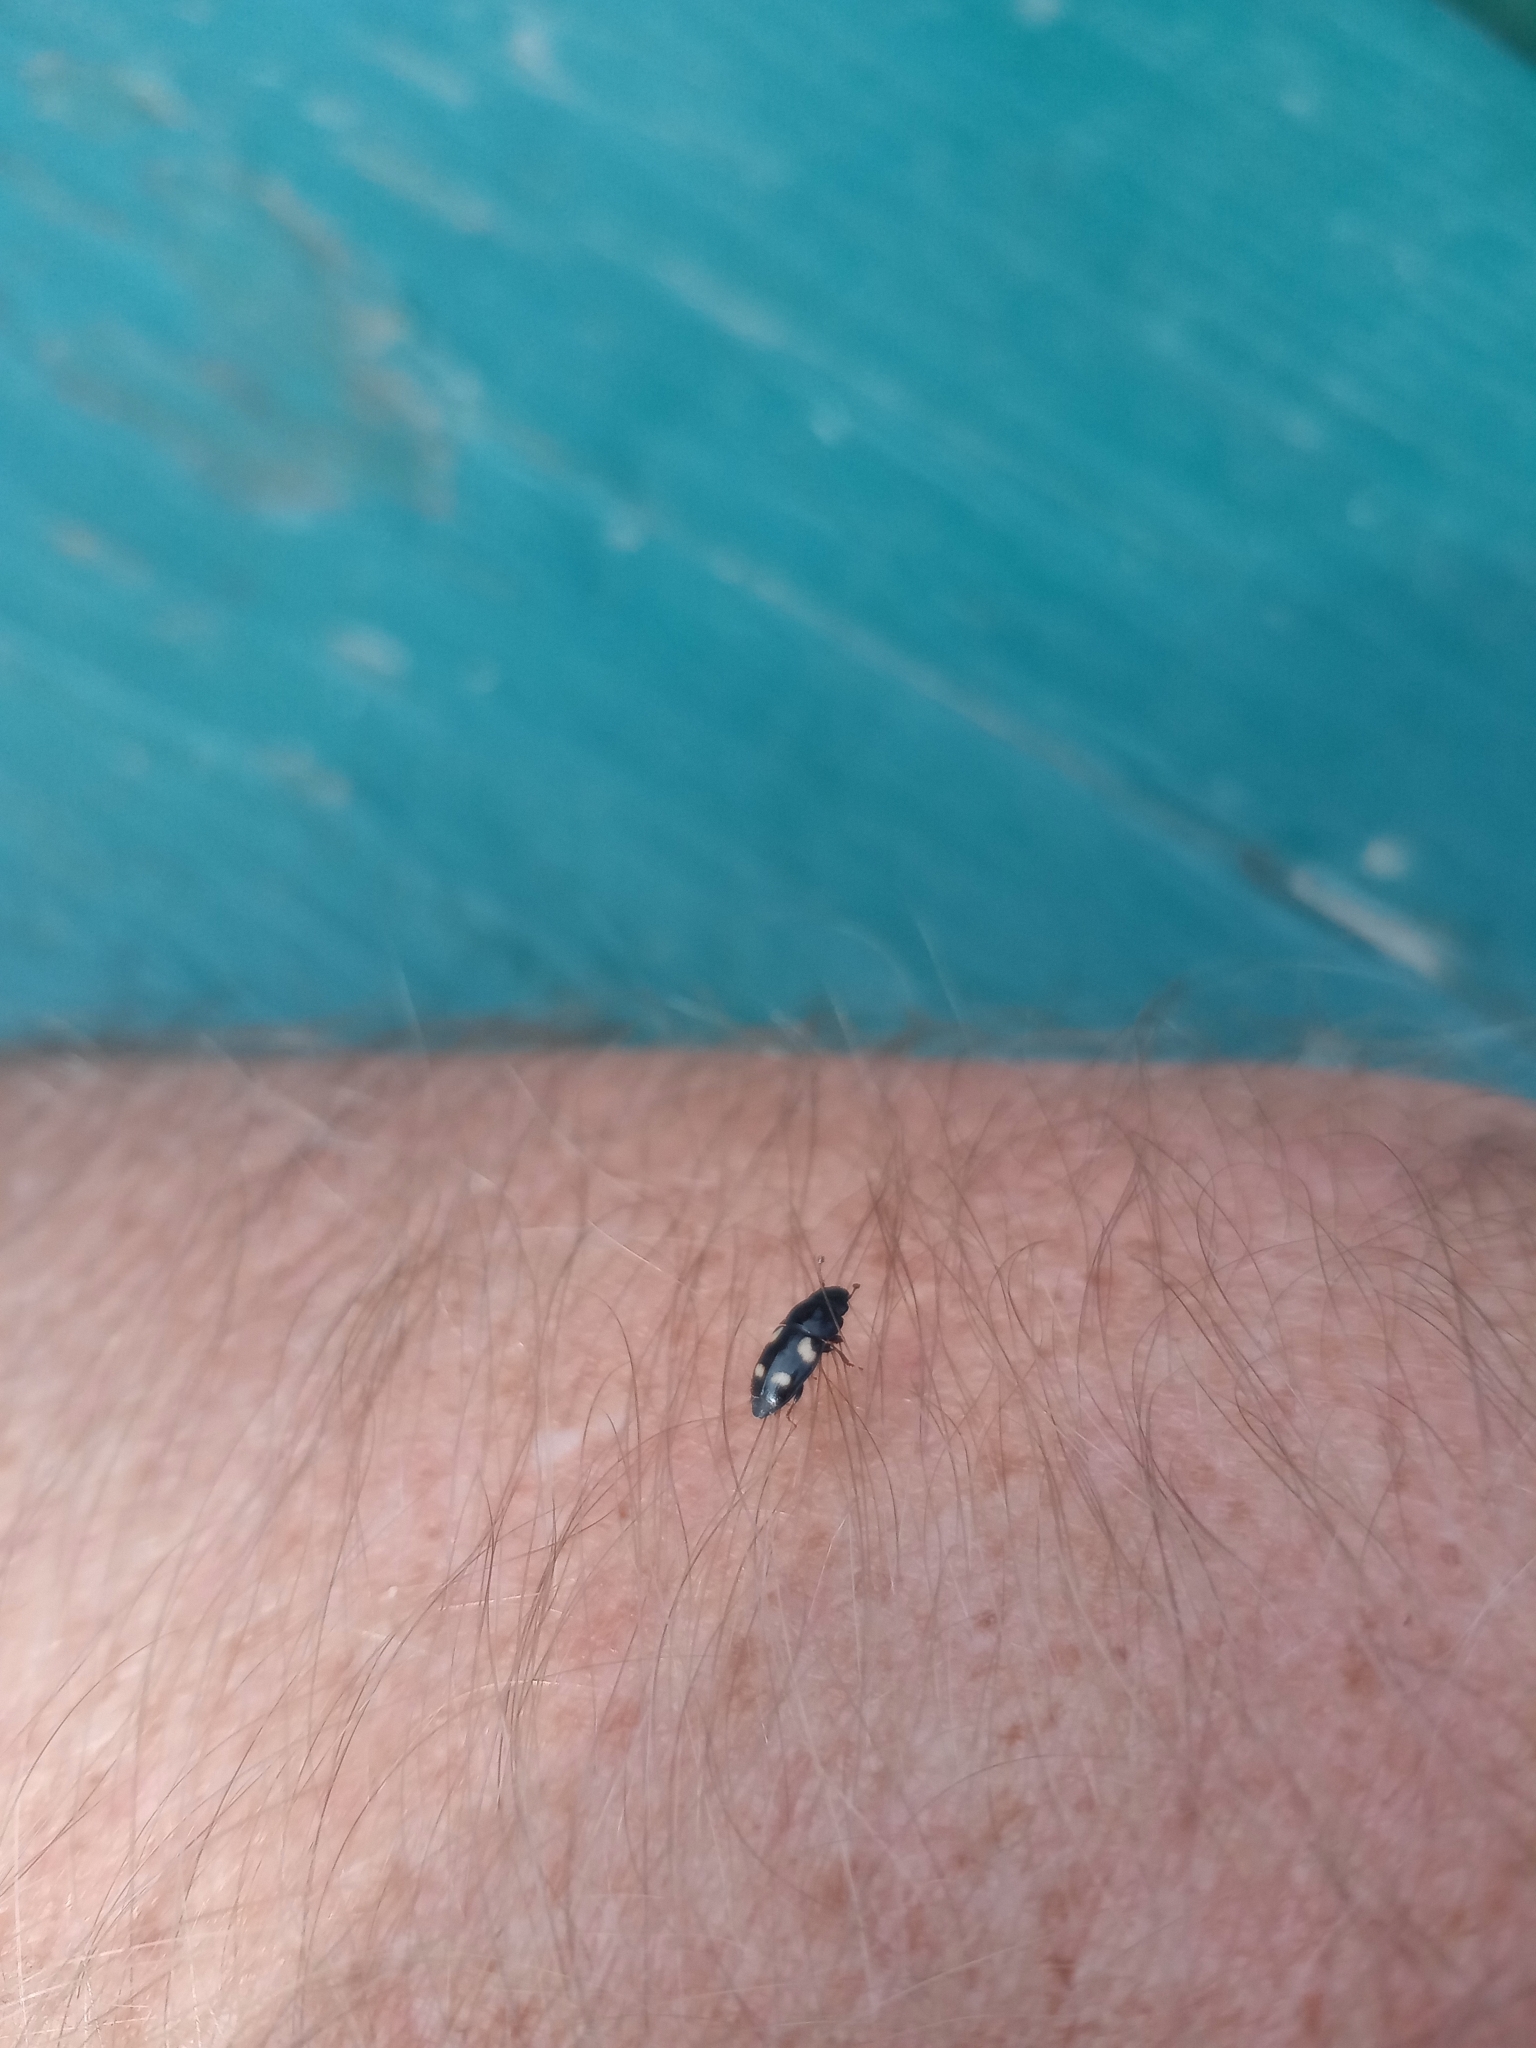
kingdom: Animalia
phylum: Arthropoda
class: Insecta
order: Coleoptera
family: Nitidulidae
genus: Glischrochilus
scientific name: Glischrochilus quadrisignatus
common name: Picnic beetle
